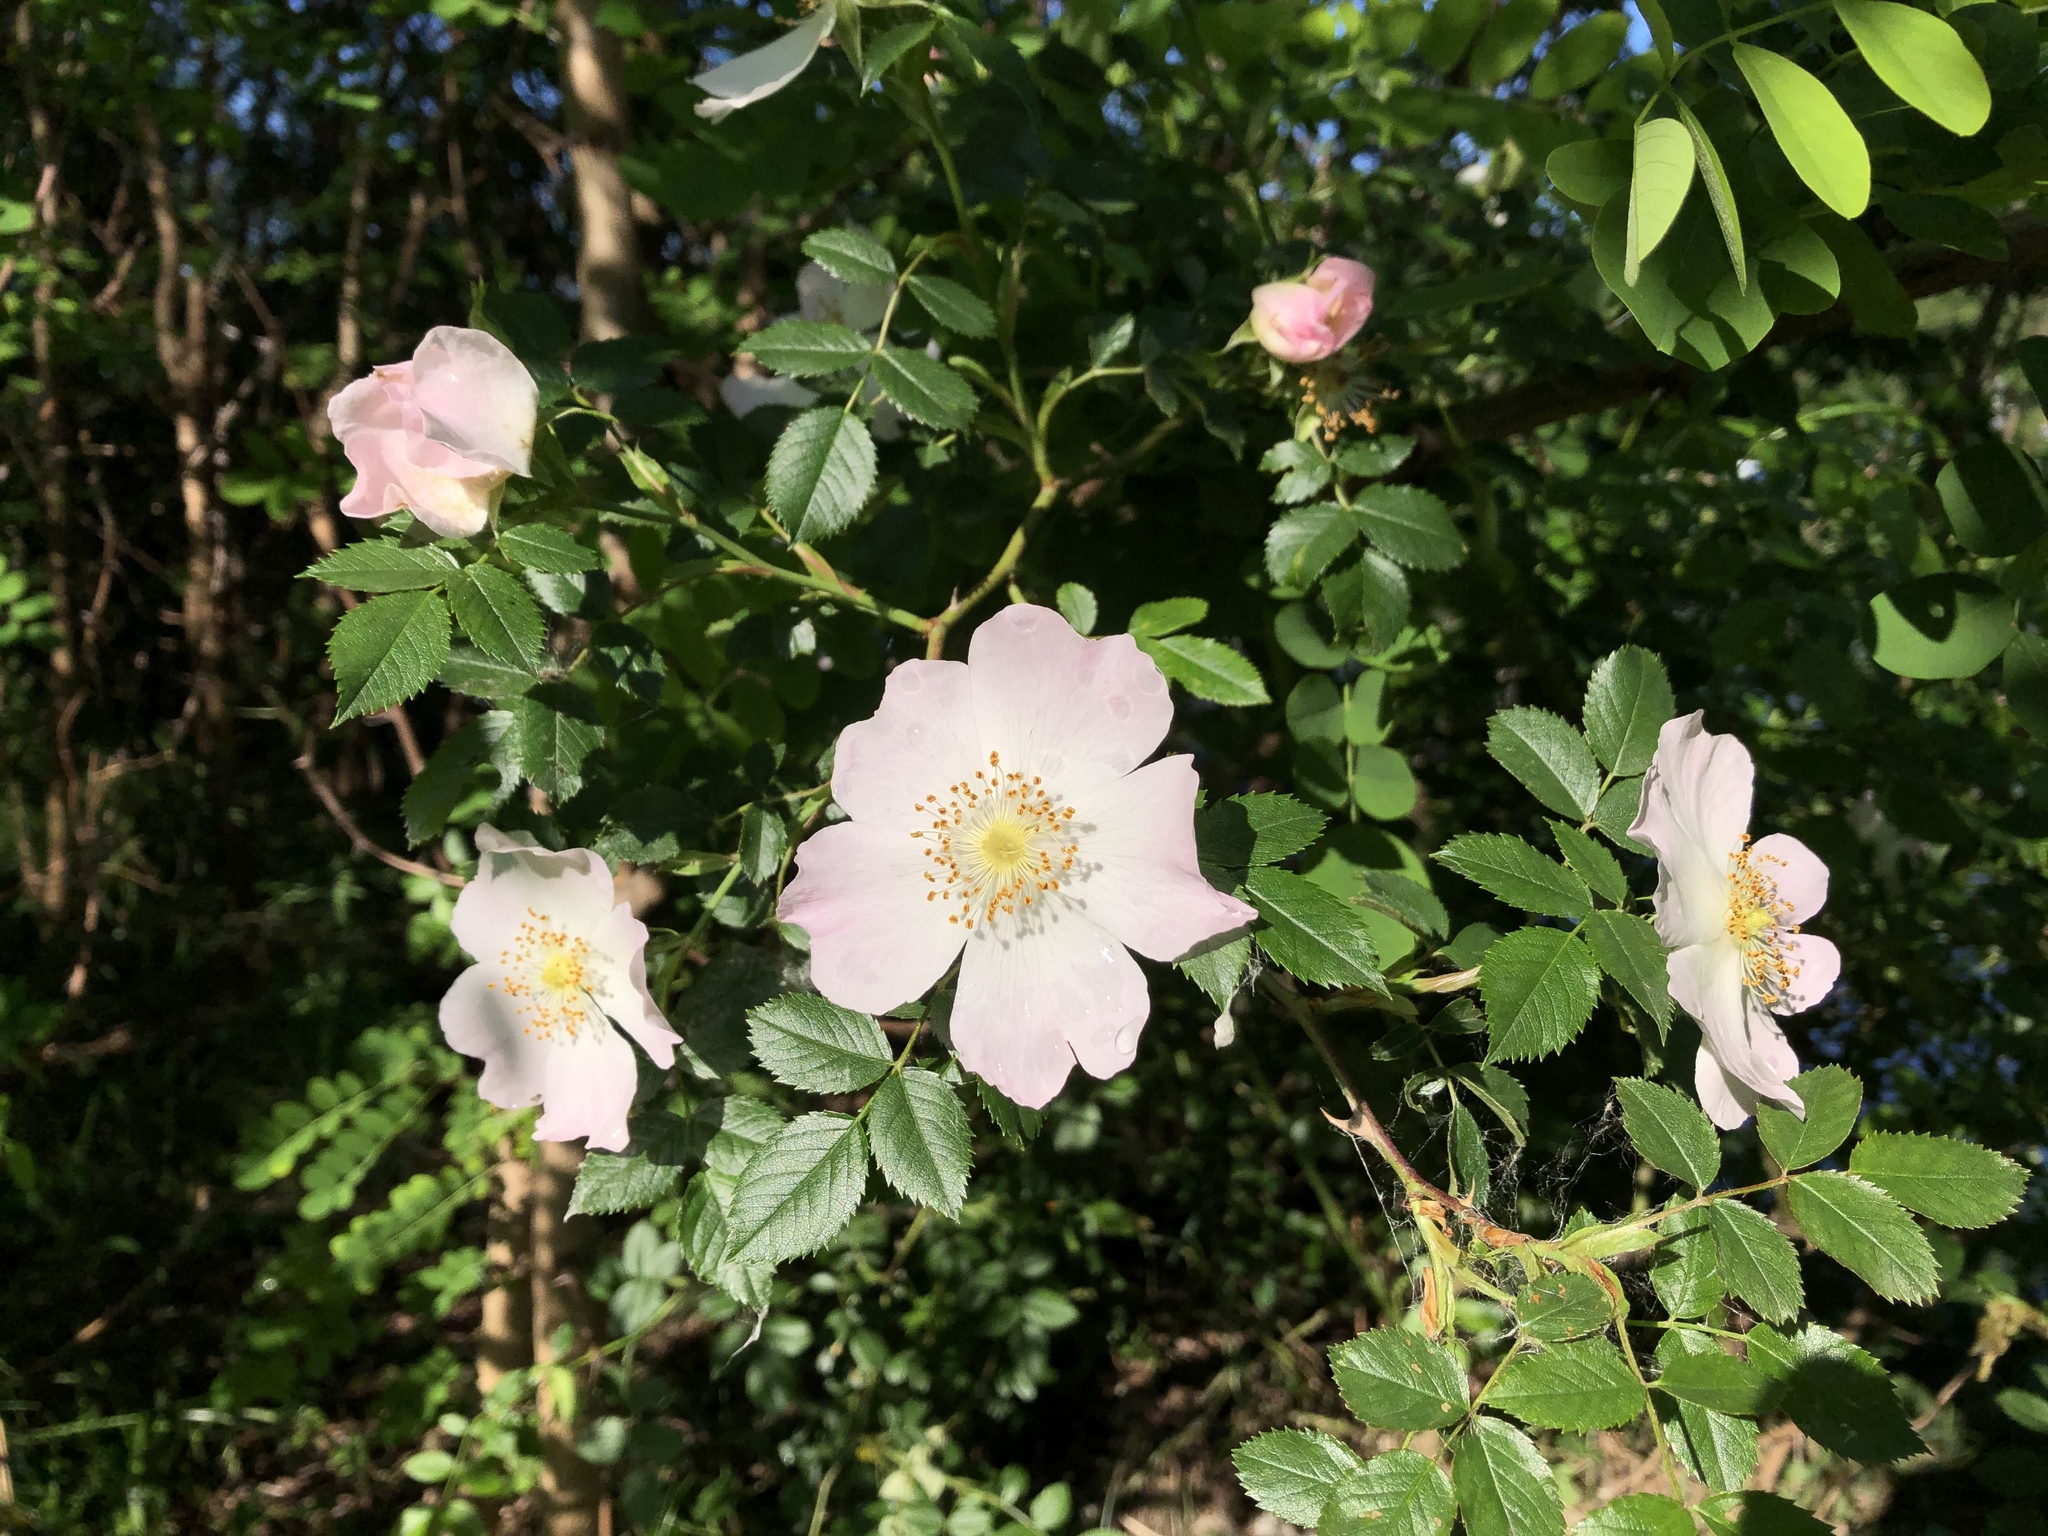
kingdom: Plantae
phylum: Tracheophyta
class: Magnoliopsida
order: Rosales
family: Rosaceae
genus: Rosa
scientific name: Rosa canina
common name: Dog rose
